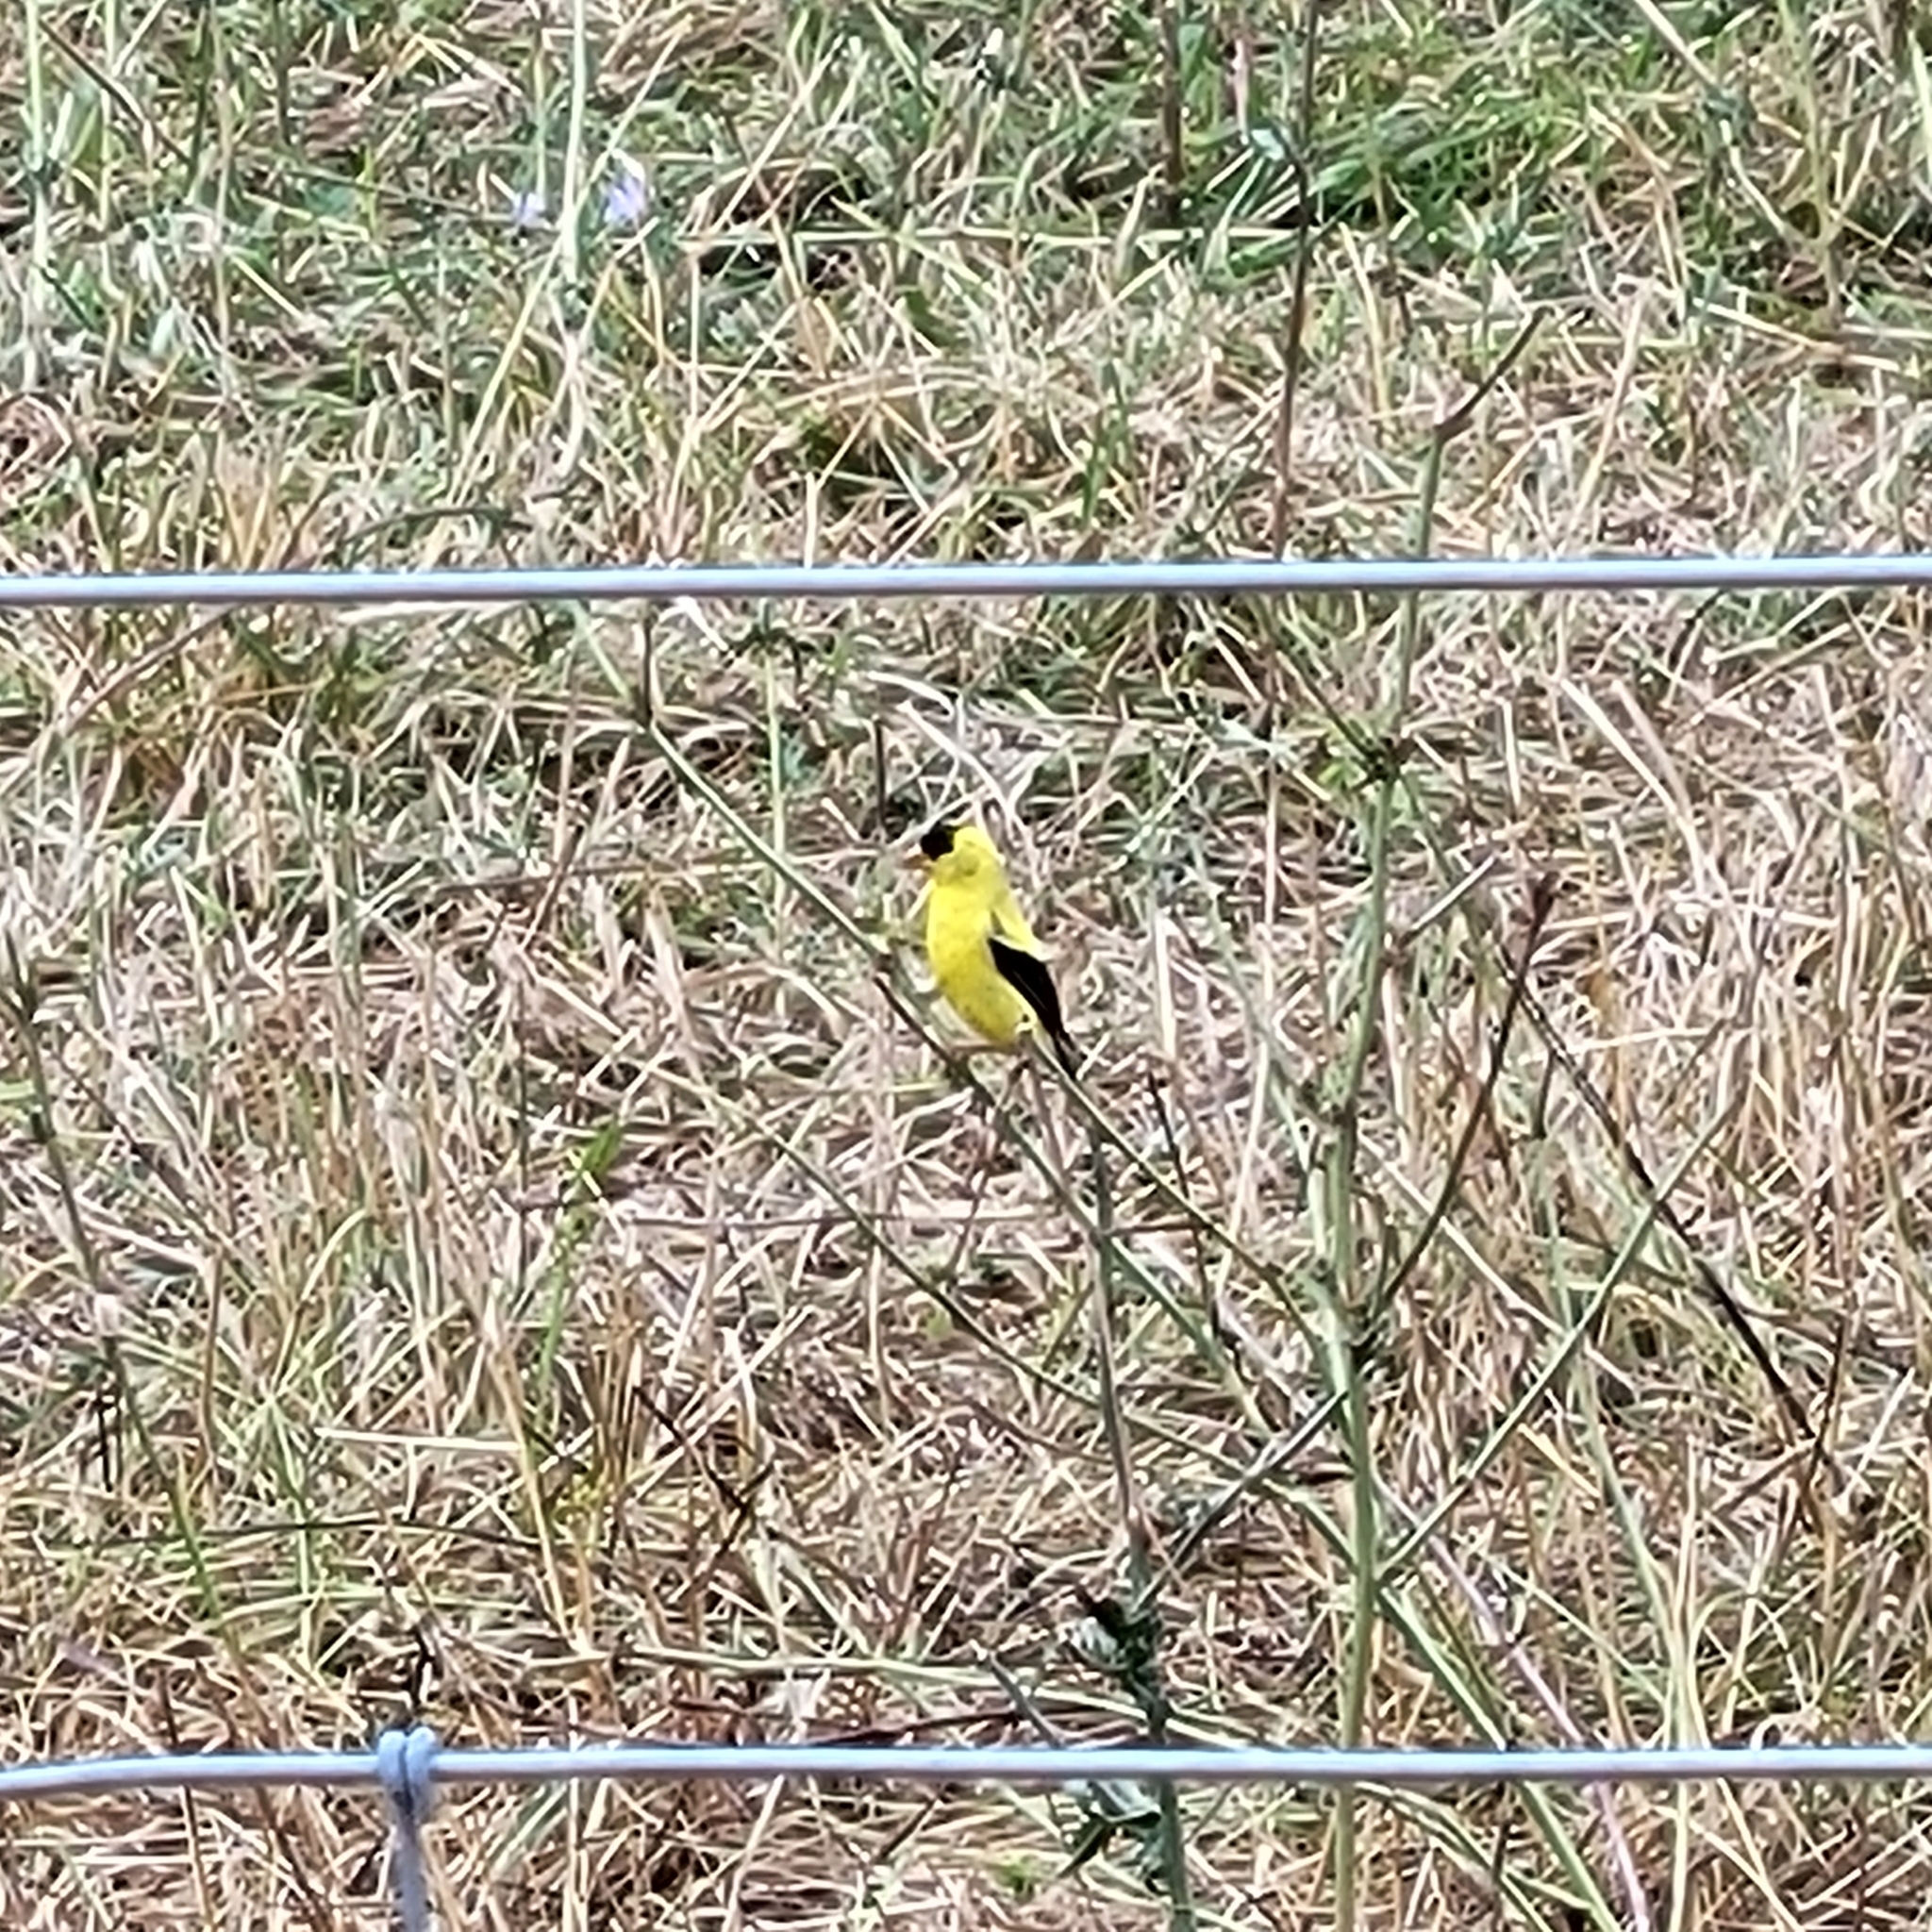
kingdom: Animalia
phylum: Chordata
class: Aves
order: Passeriformes
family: Fringillidae
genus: Spinus
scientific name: Spinus tristis
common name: American goldfinch
